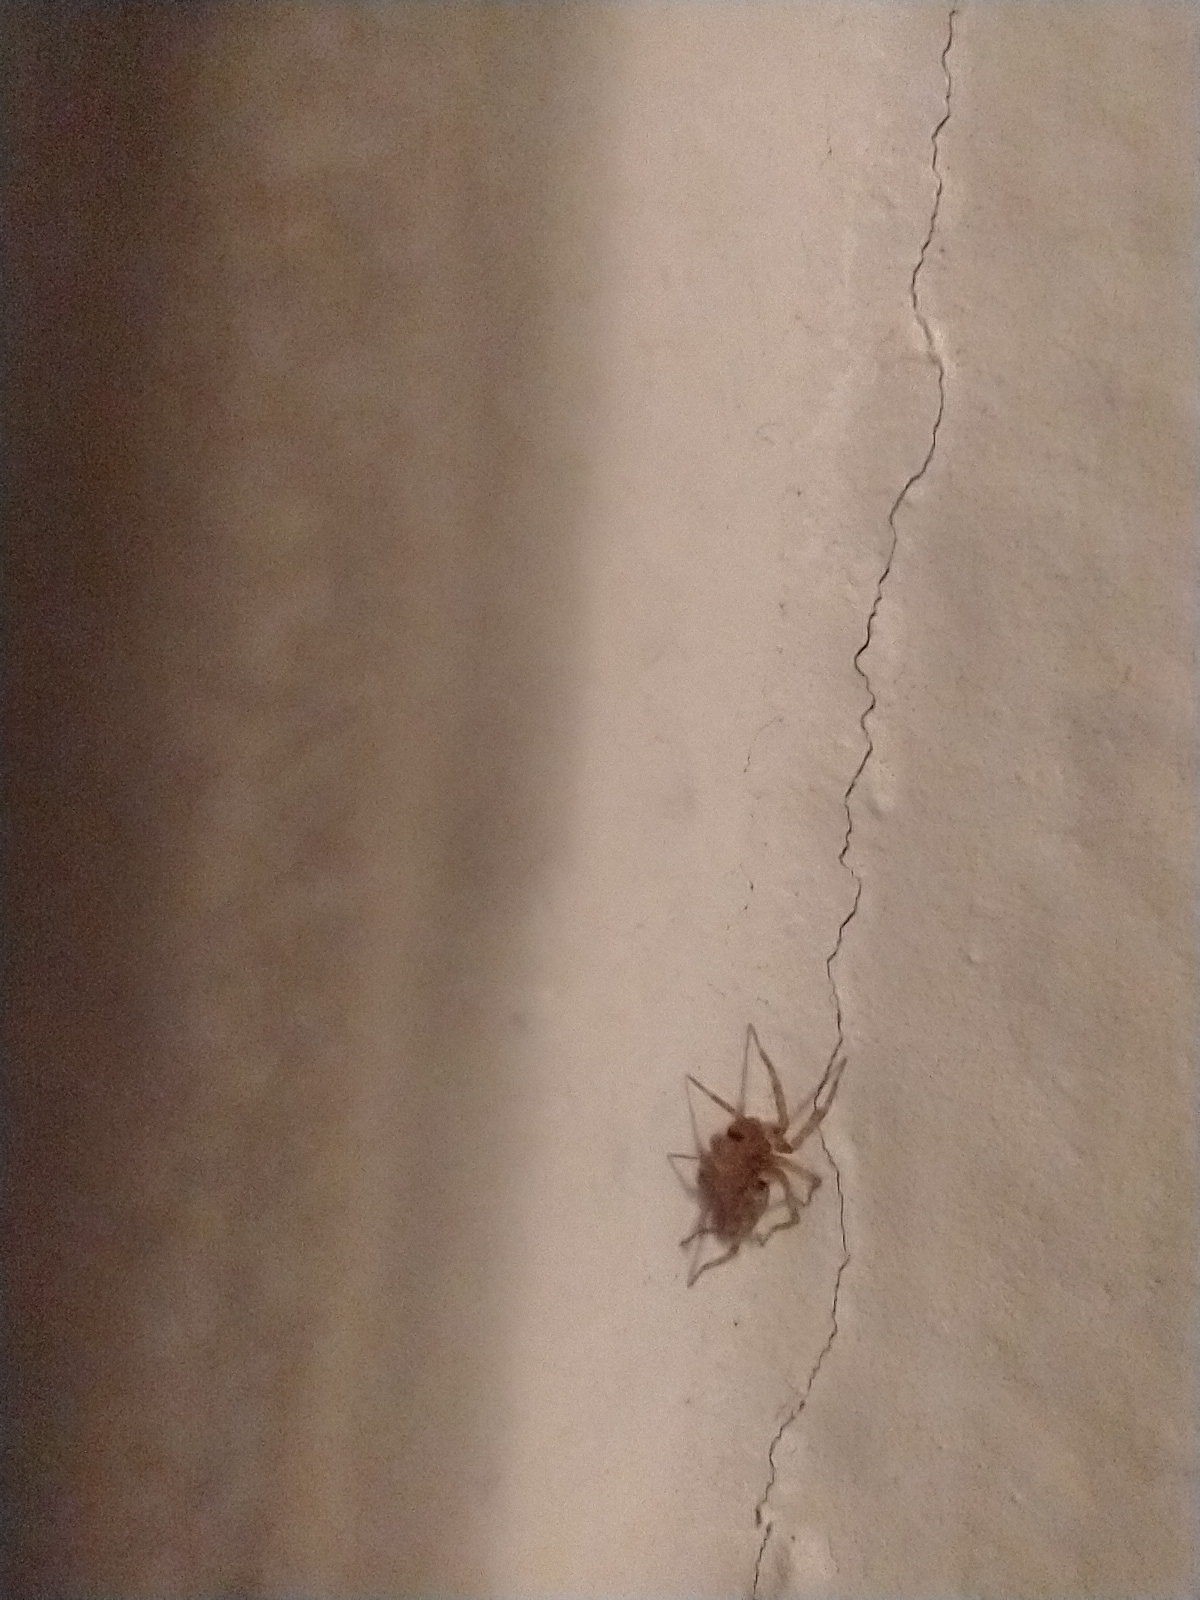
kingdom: Animalia
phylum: Arthropoda
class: Arachnida
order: Araneae
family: Oecobiidae
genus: Oecobius
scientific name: Oecobius
